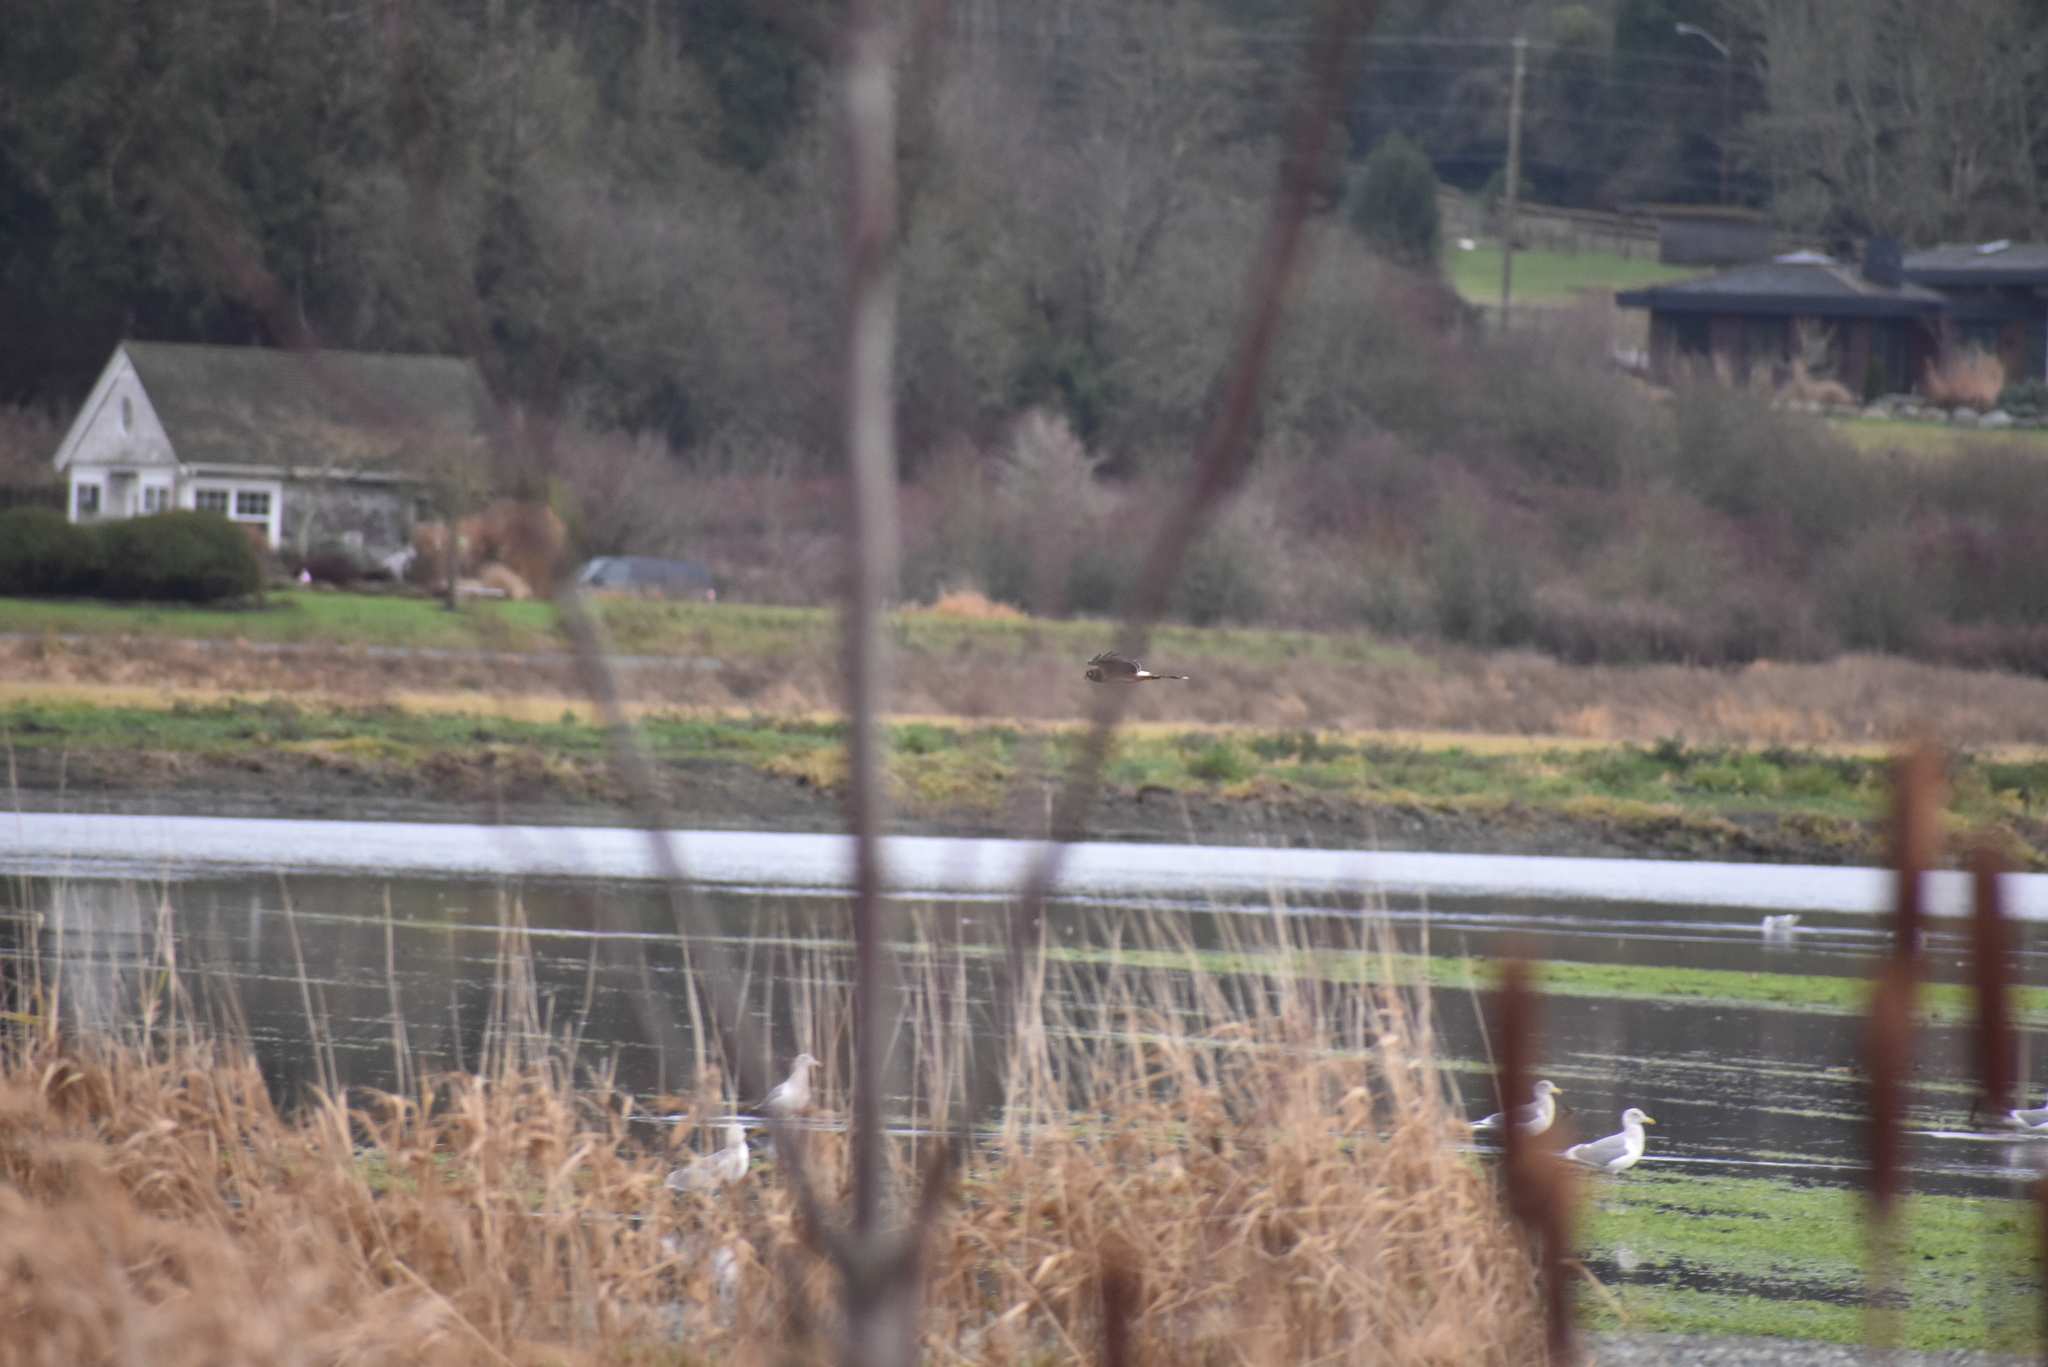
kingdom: Animalia
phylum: Chordata
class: Aves
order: Accipitriformes
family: Accipitridae
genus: Circus
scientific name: Circus cyaneus
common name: Hen harrier
